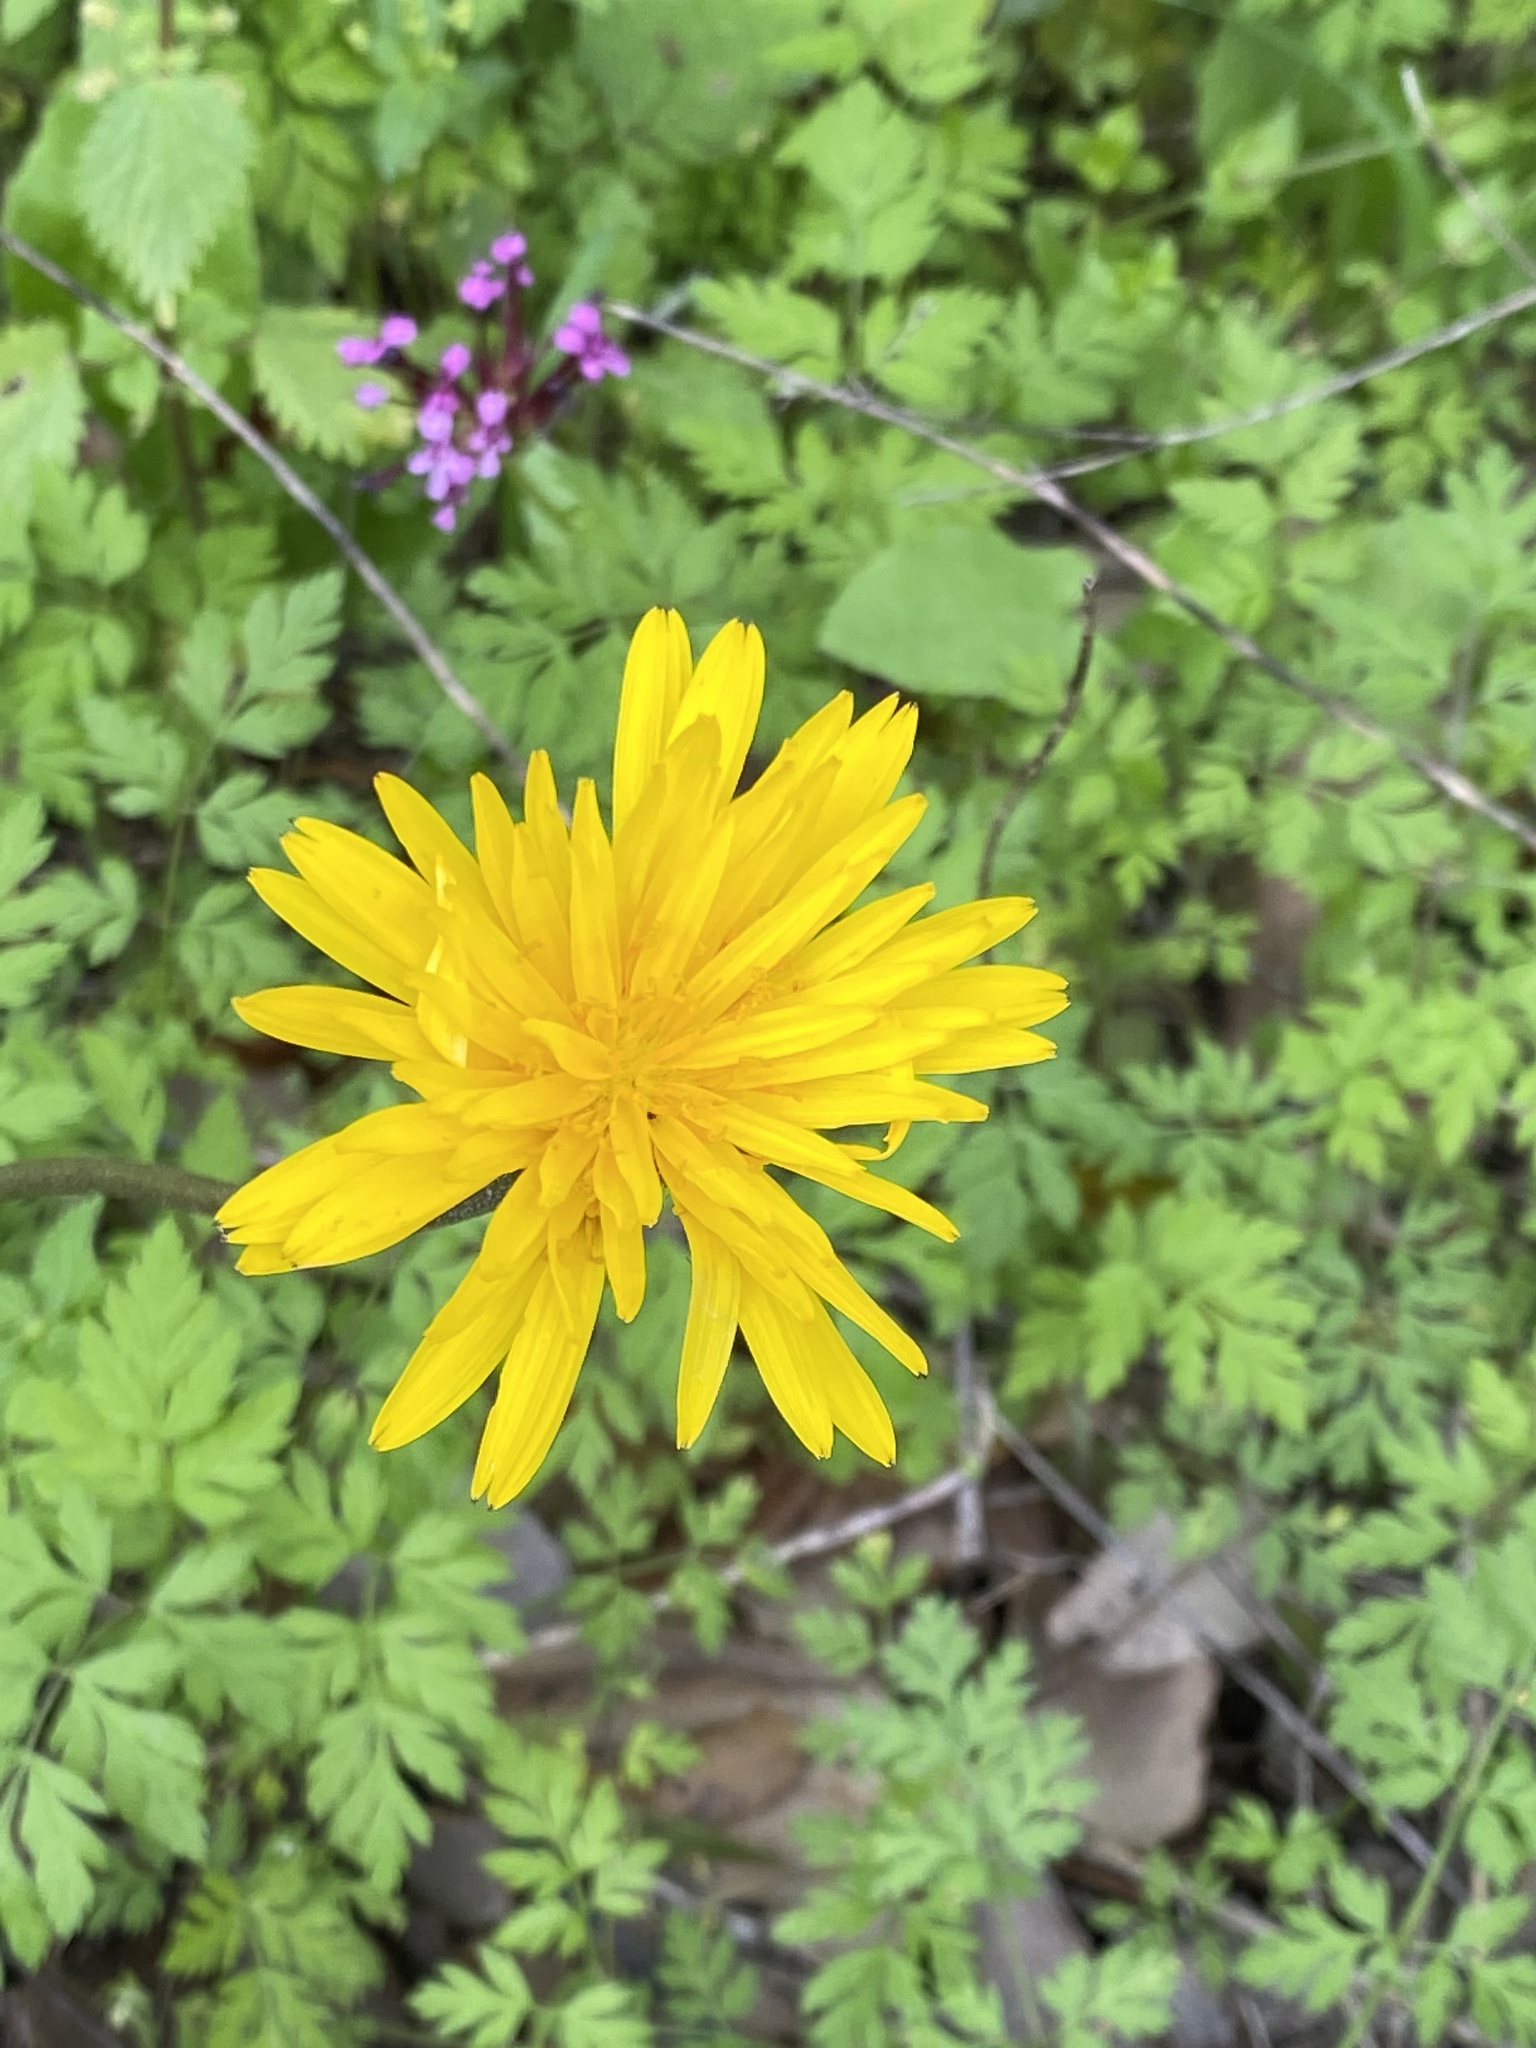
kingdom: Plantae
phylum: Tracheophyta
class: Magnoliopsida
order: Asterales
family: Asteraceae
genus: Hyoseris
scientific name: Hyoseris radiata
